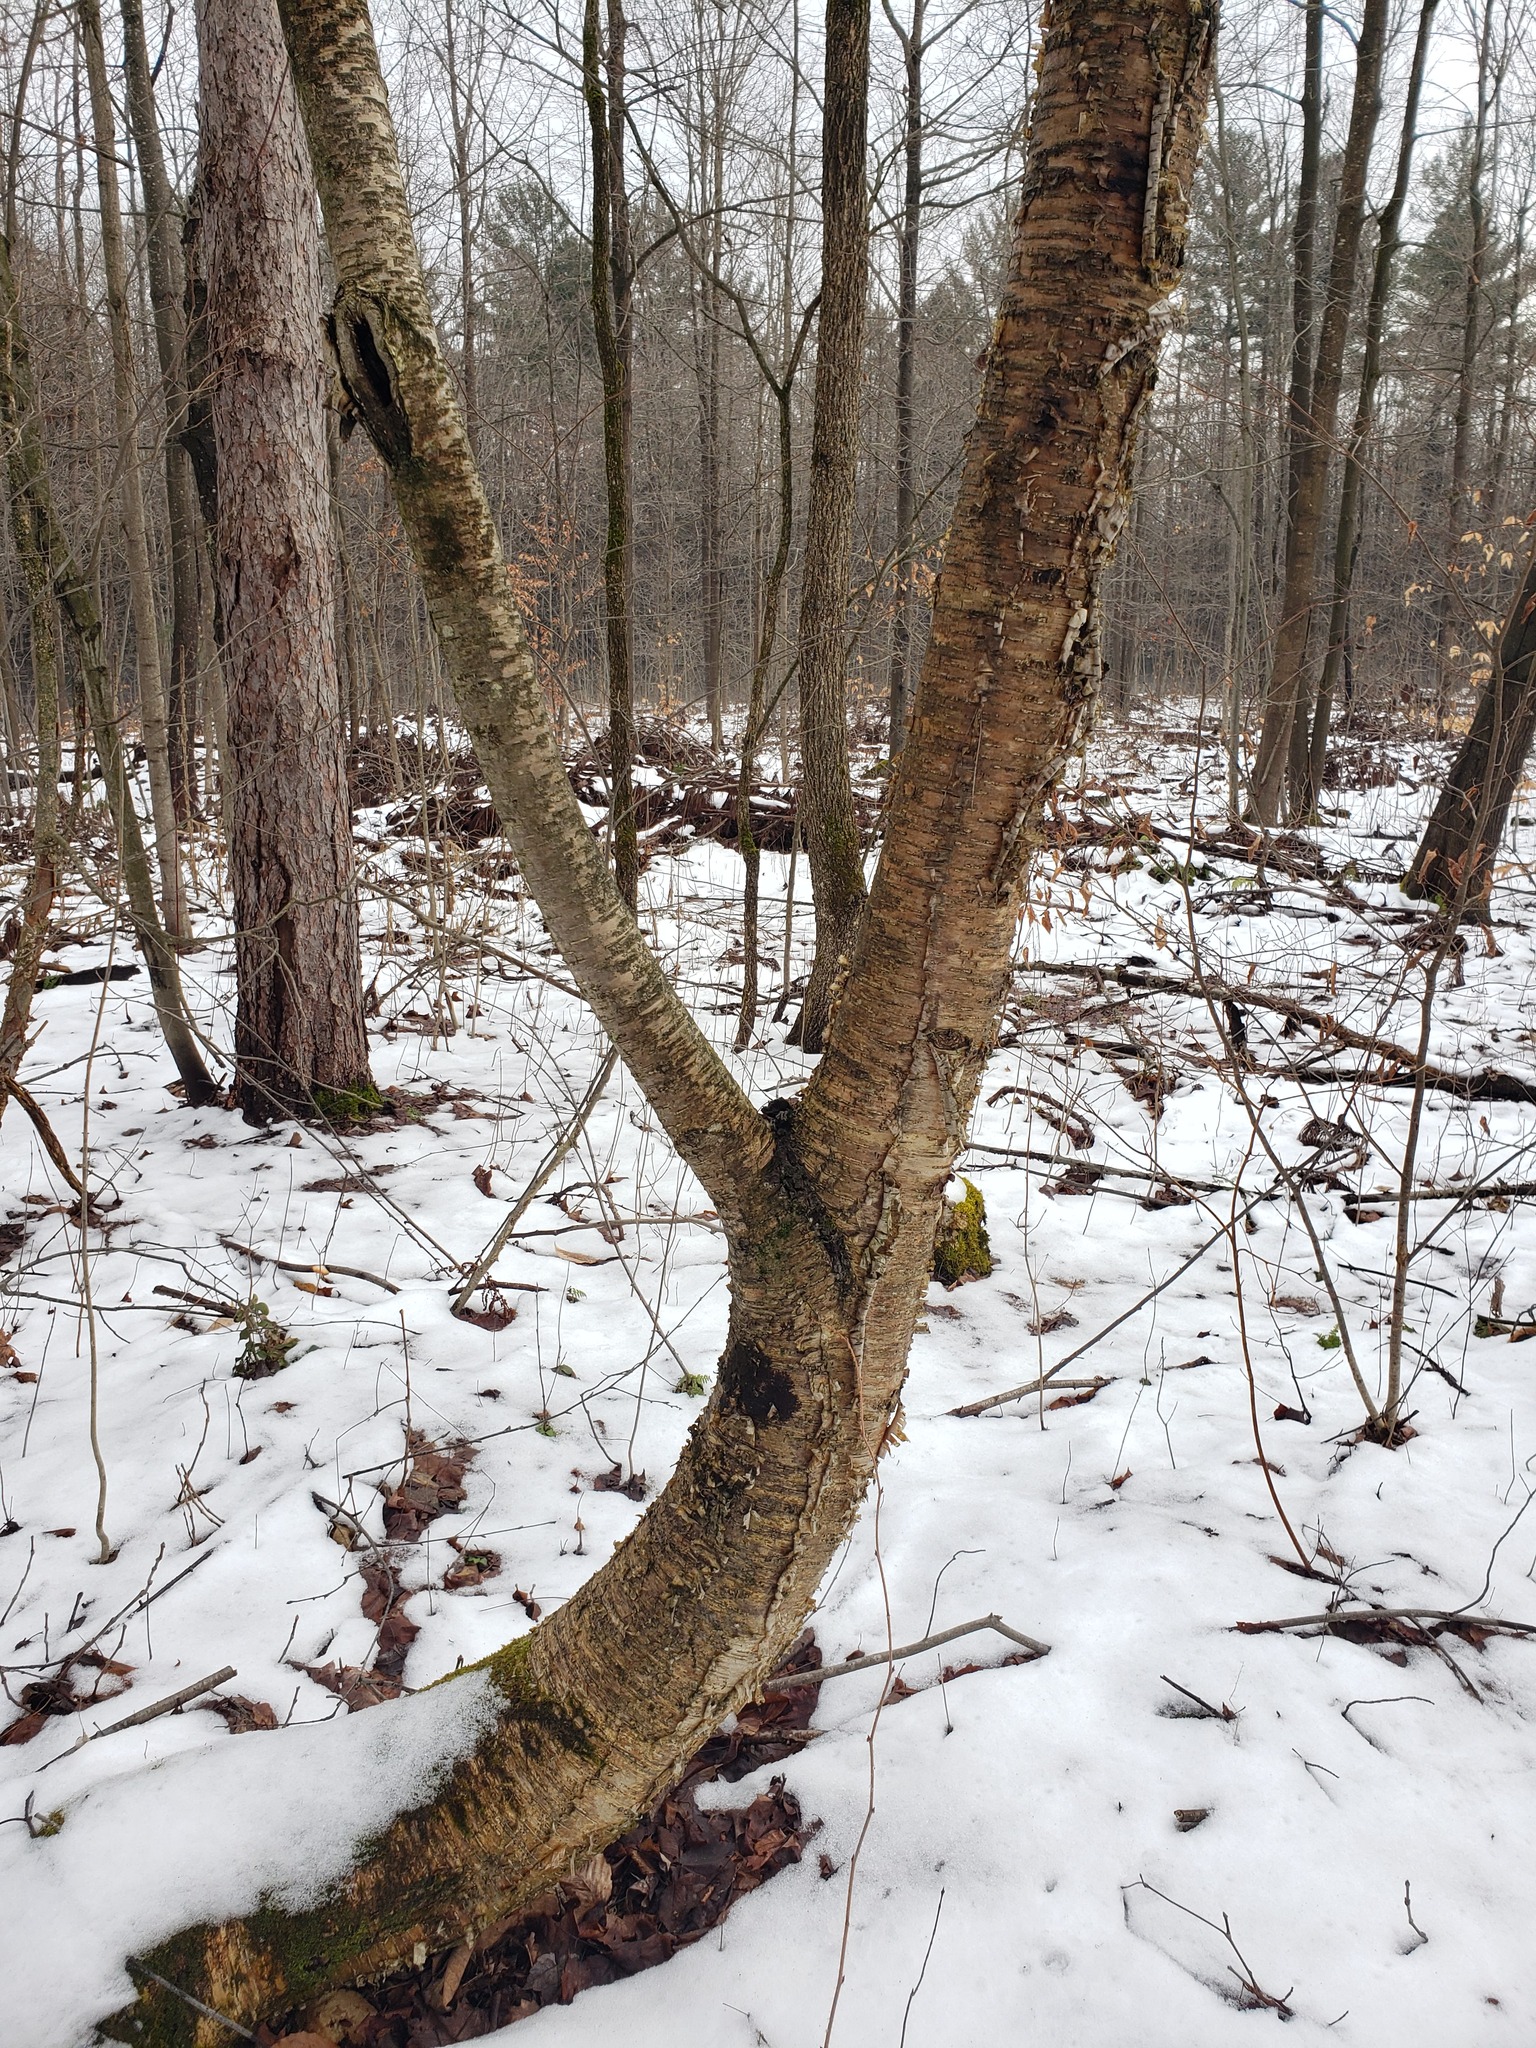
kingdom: Plantae
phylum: Tracheophyta
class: Magnoliopsida
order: Fagales
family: Betulaceae
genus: Betula
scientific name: Betula alleghaniensis
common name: Yellow birch
